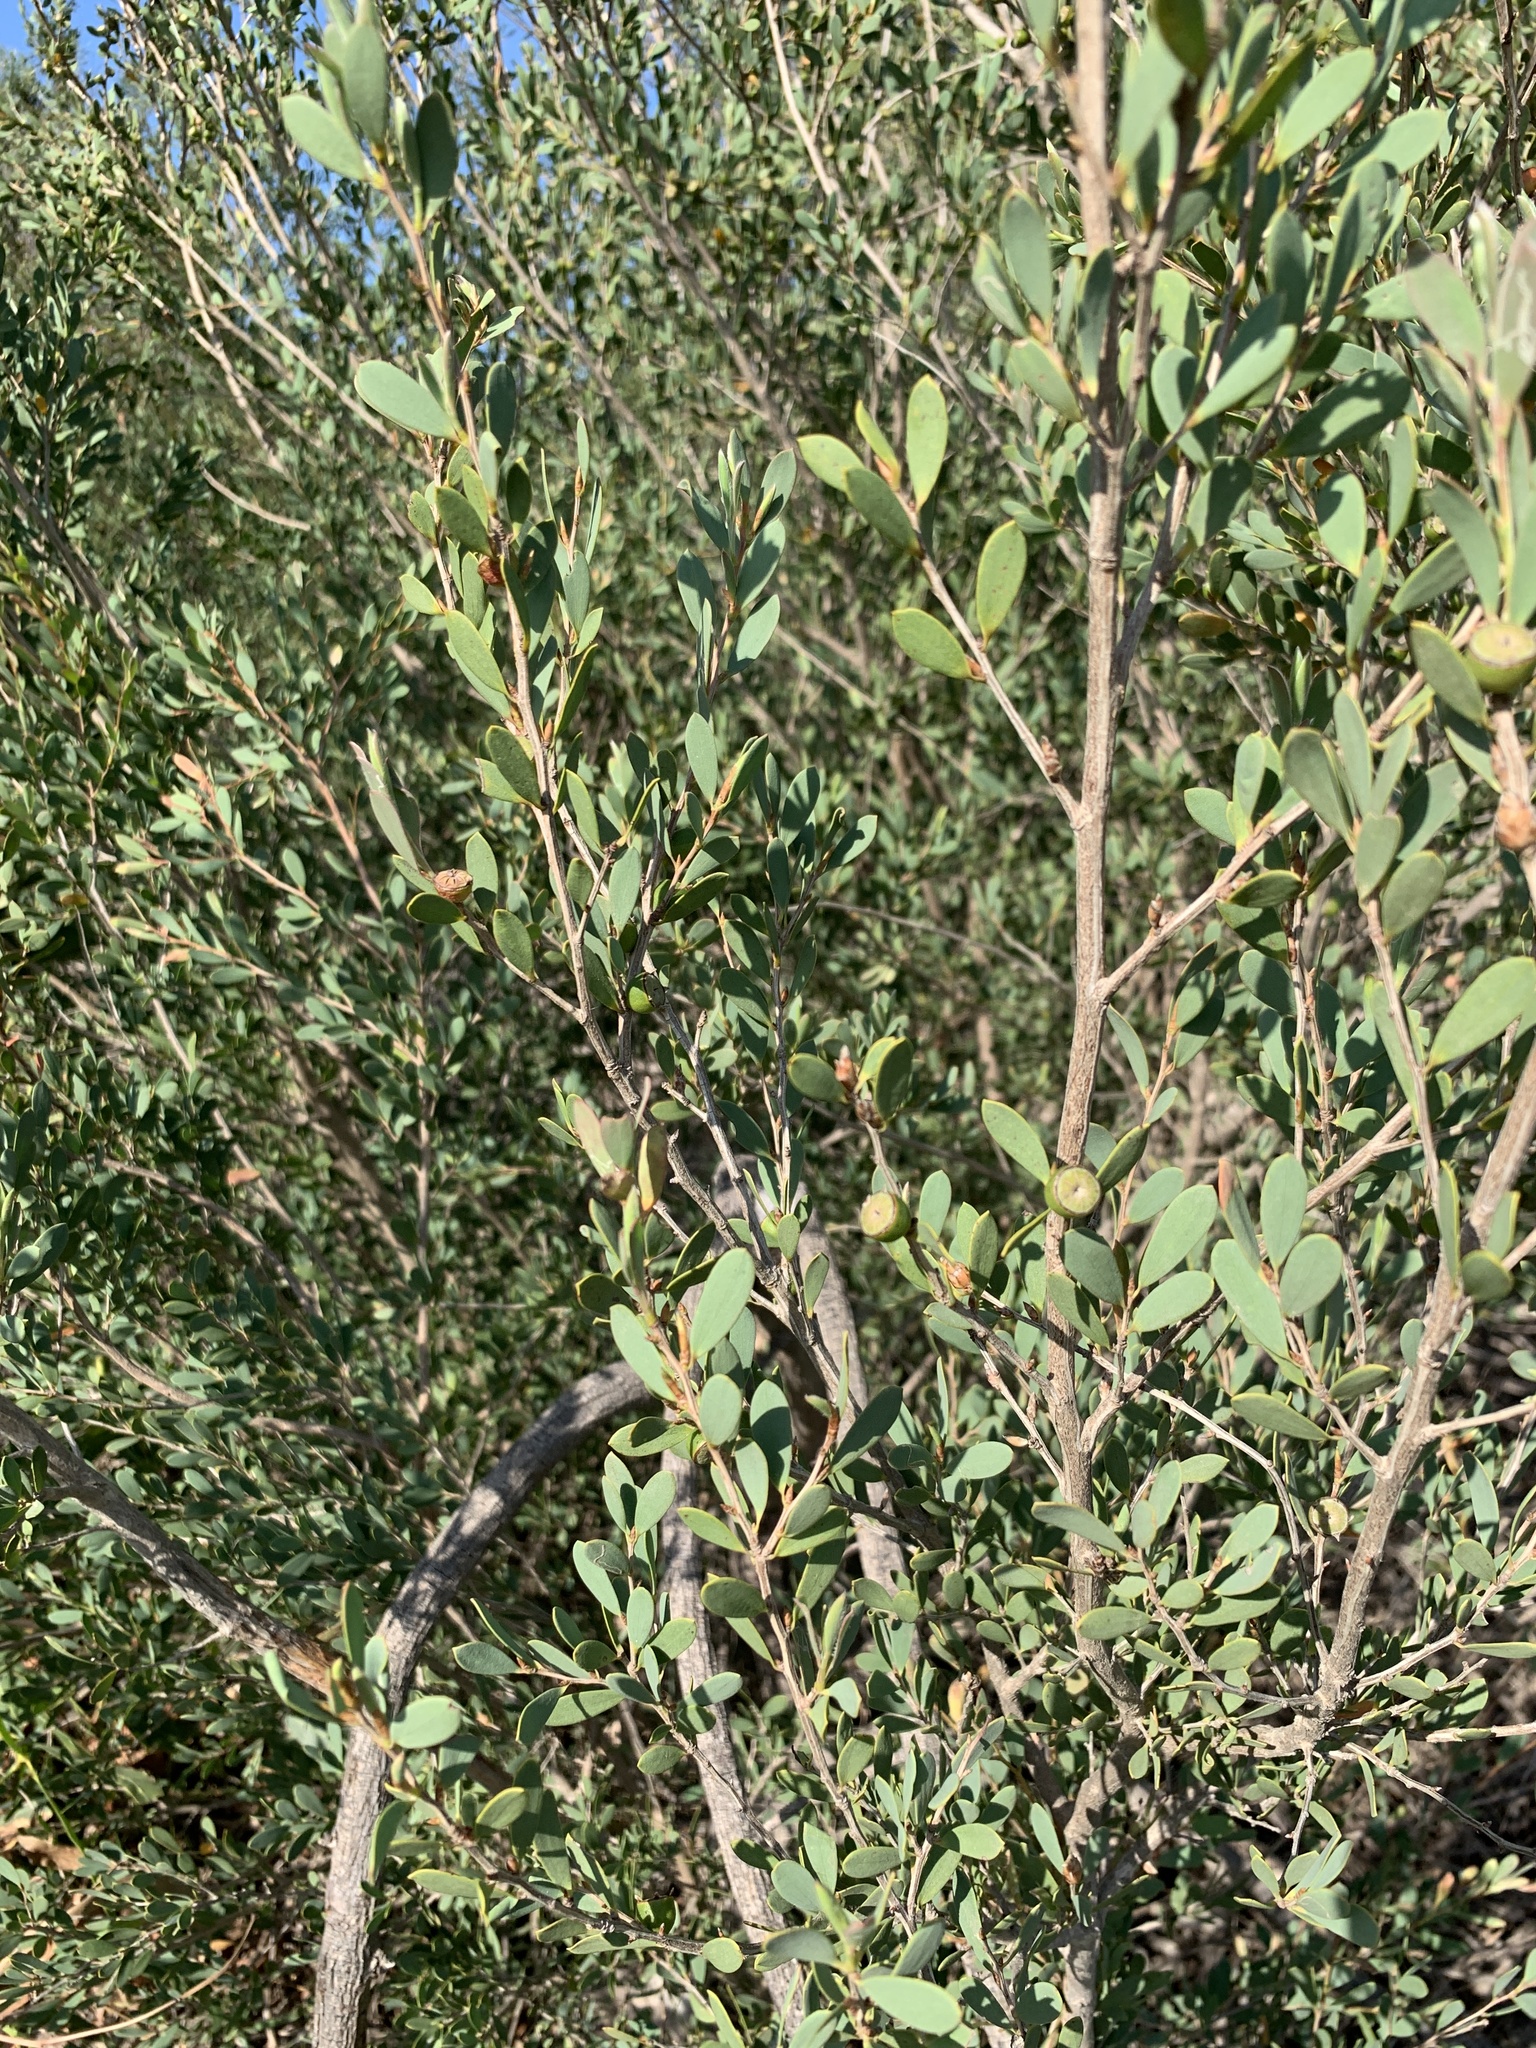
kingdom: Plantae
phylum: Tracheophyta
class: Magnoliopsida
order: Myrtales
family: Myrtaceae
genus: Leptospermum
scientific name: Leptospermum laevigatum
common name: Australian teatree
